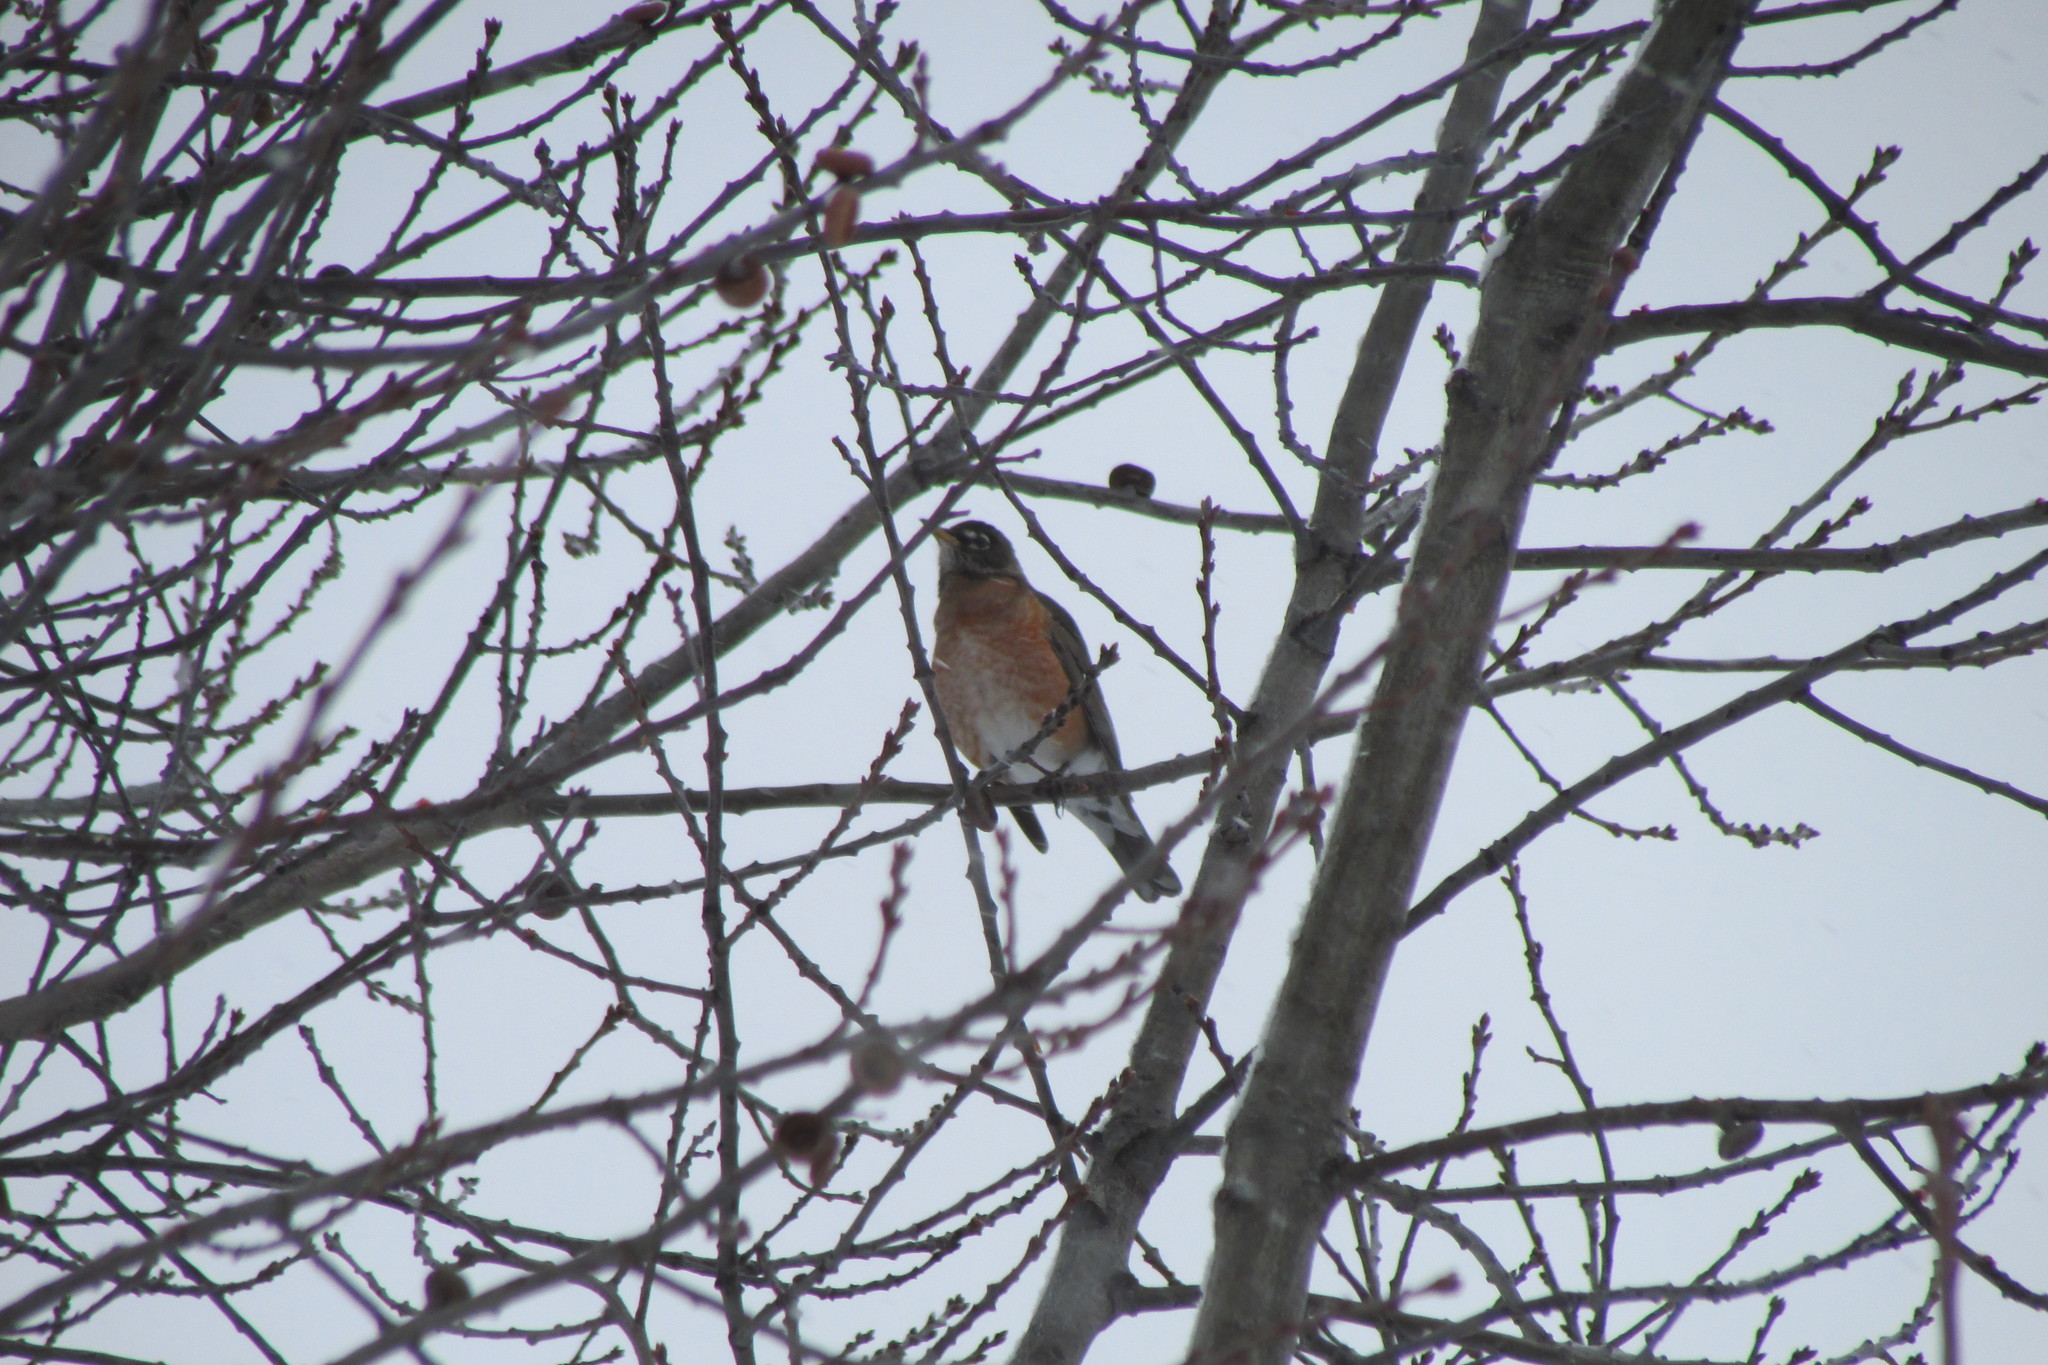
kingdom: Animalia
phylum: Chordata
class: Aves
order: Passeriformes
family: Turdidae
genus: Turdus
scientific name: Turdus migratorius
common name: American robin
